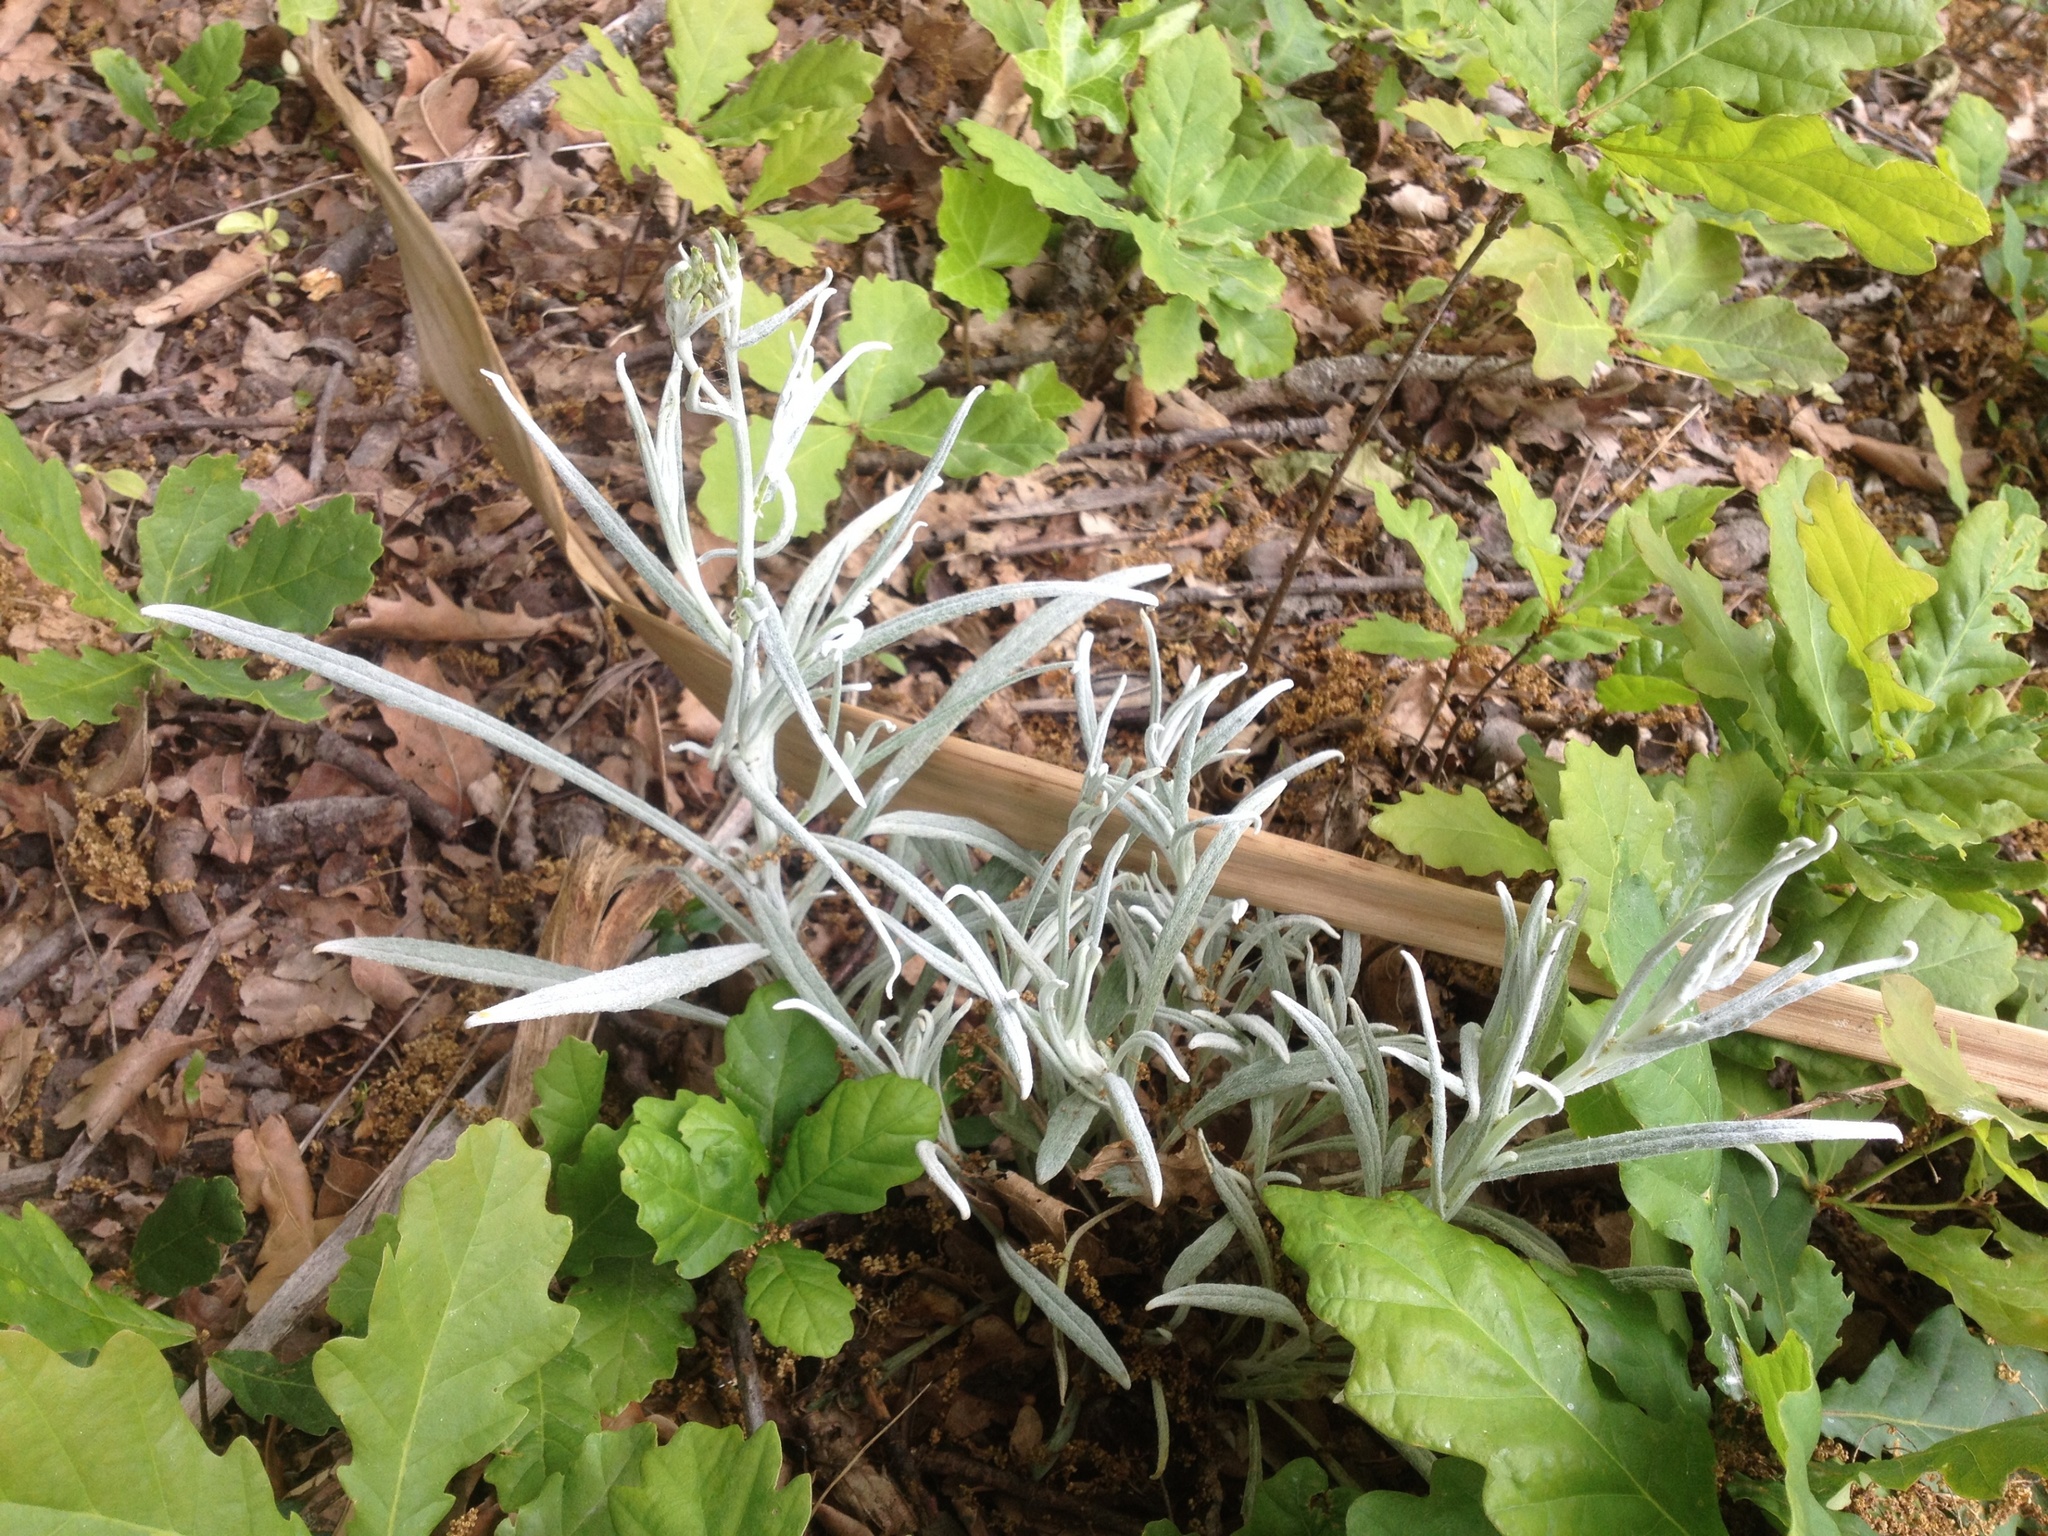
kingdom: Plantae
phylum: Tracheophyta
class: Magnoliopsida
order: Asterales
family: Asteraceae
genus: Senecio
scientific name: Senecio quadridentatus
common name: Cotton fireweed
